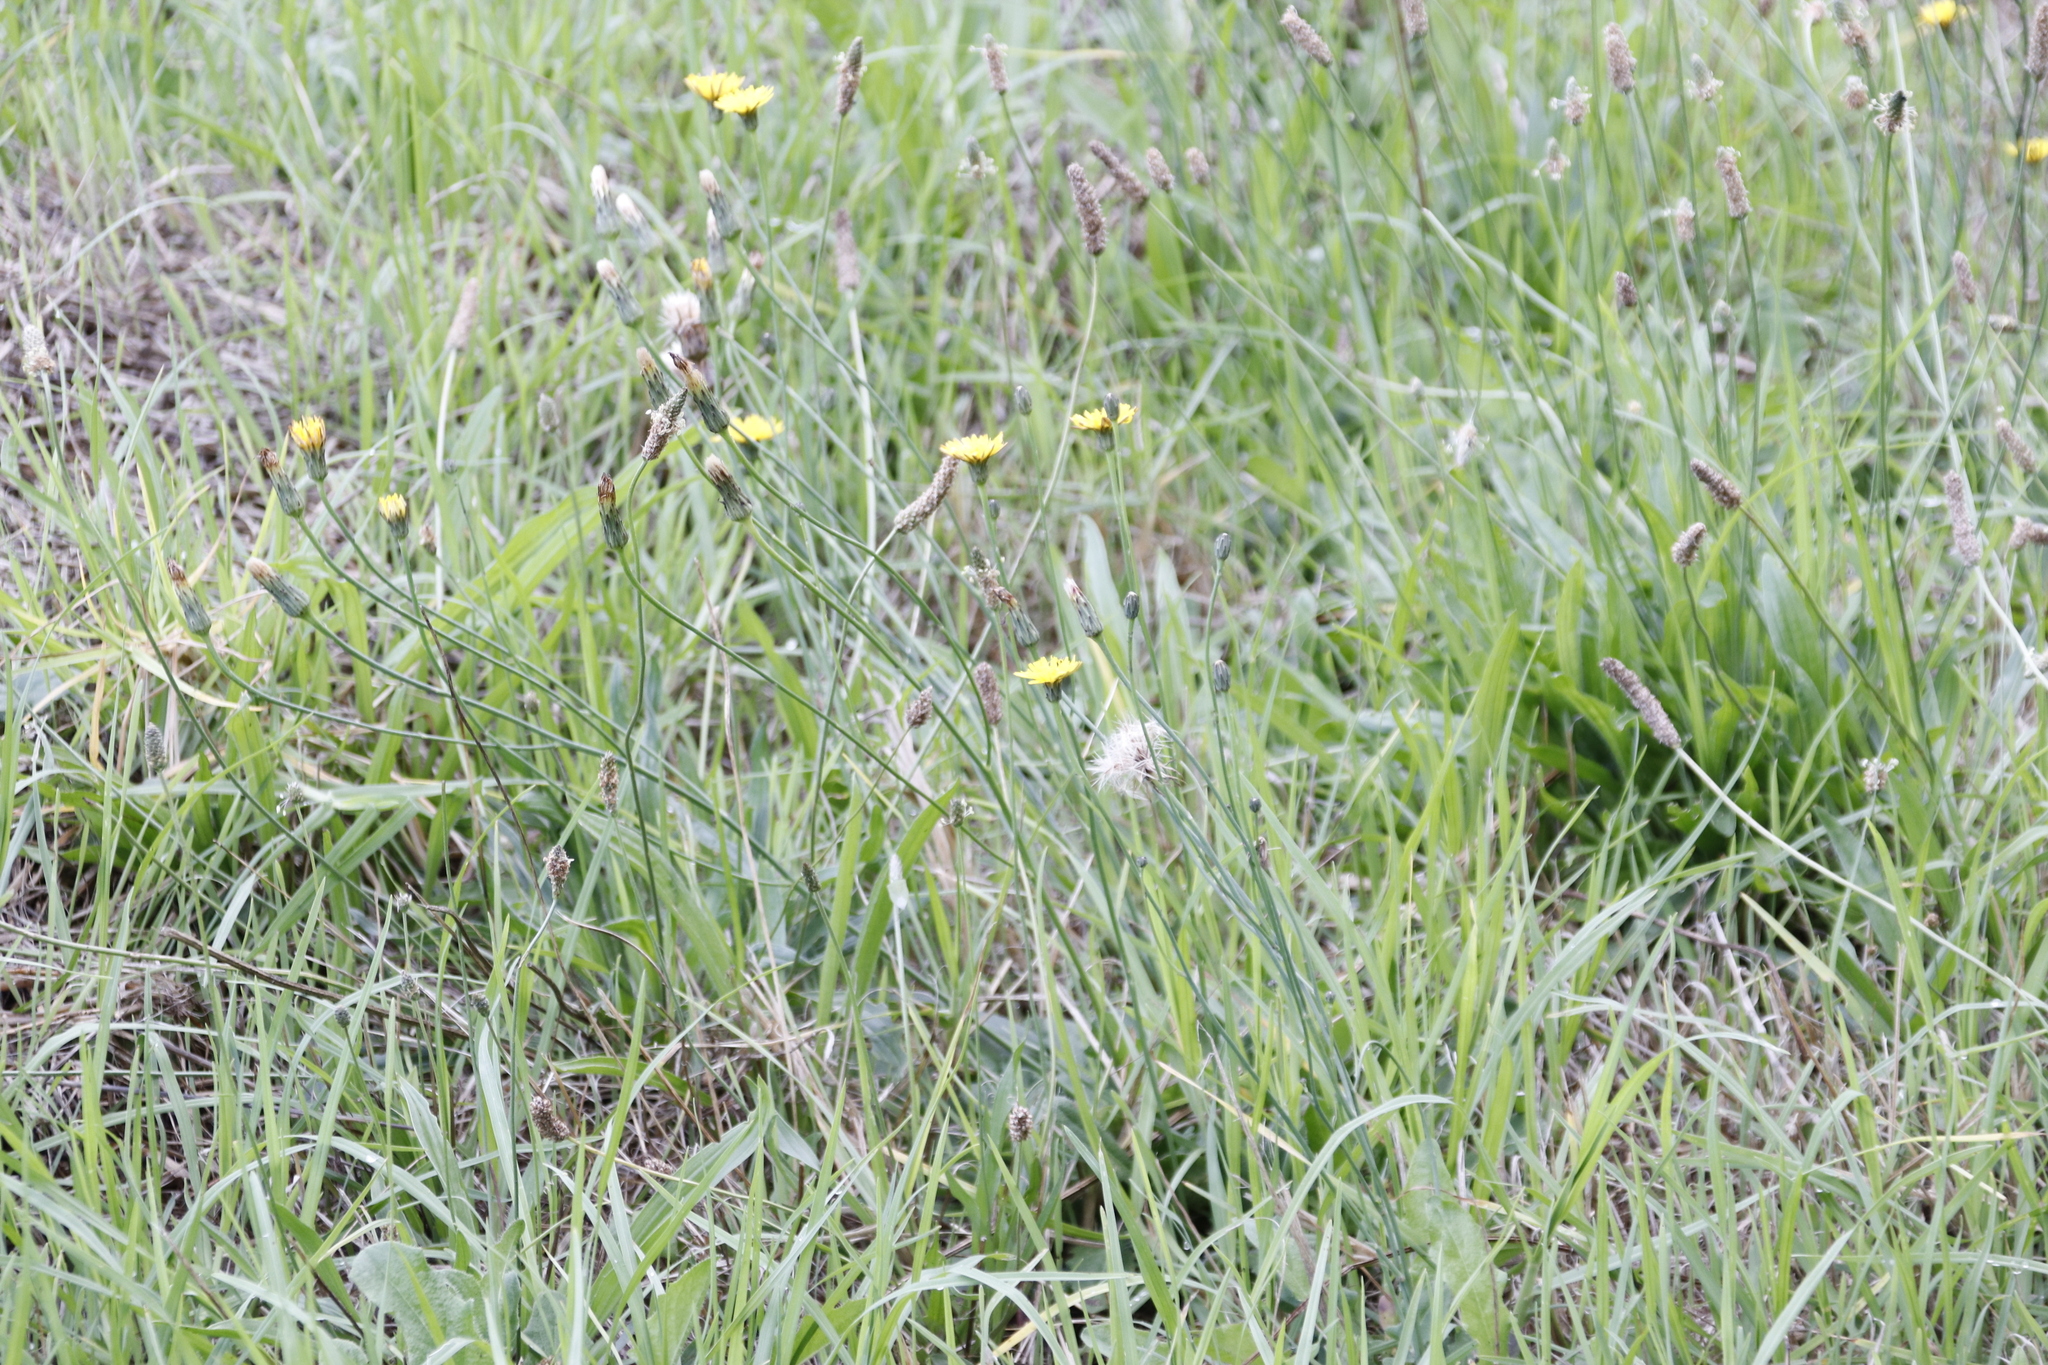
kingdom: Plantae
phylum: Tracheophyta
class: Magnoliopsida
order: Asterales
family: Asteraceae
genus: Hypochaeris
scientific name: Hypochaeris radicata
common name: Flatweed
